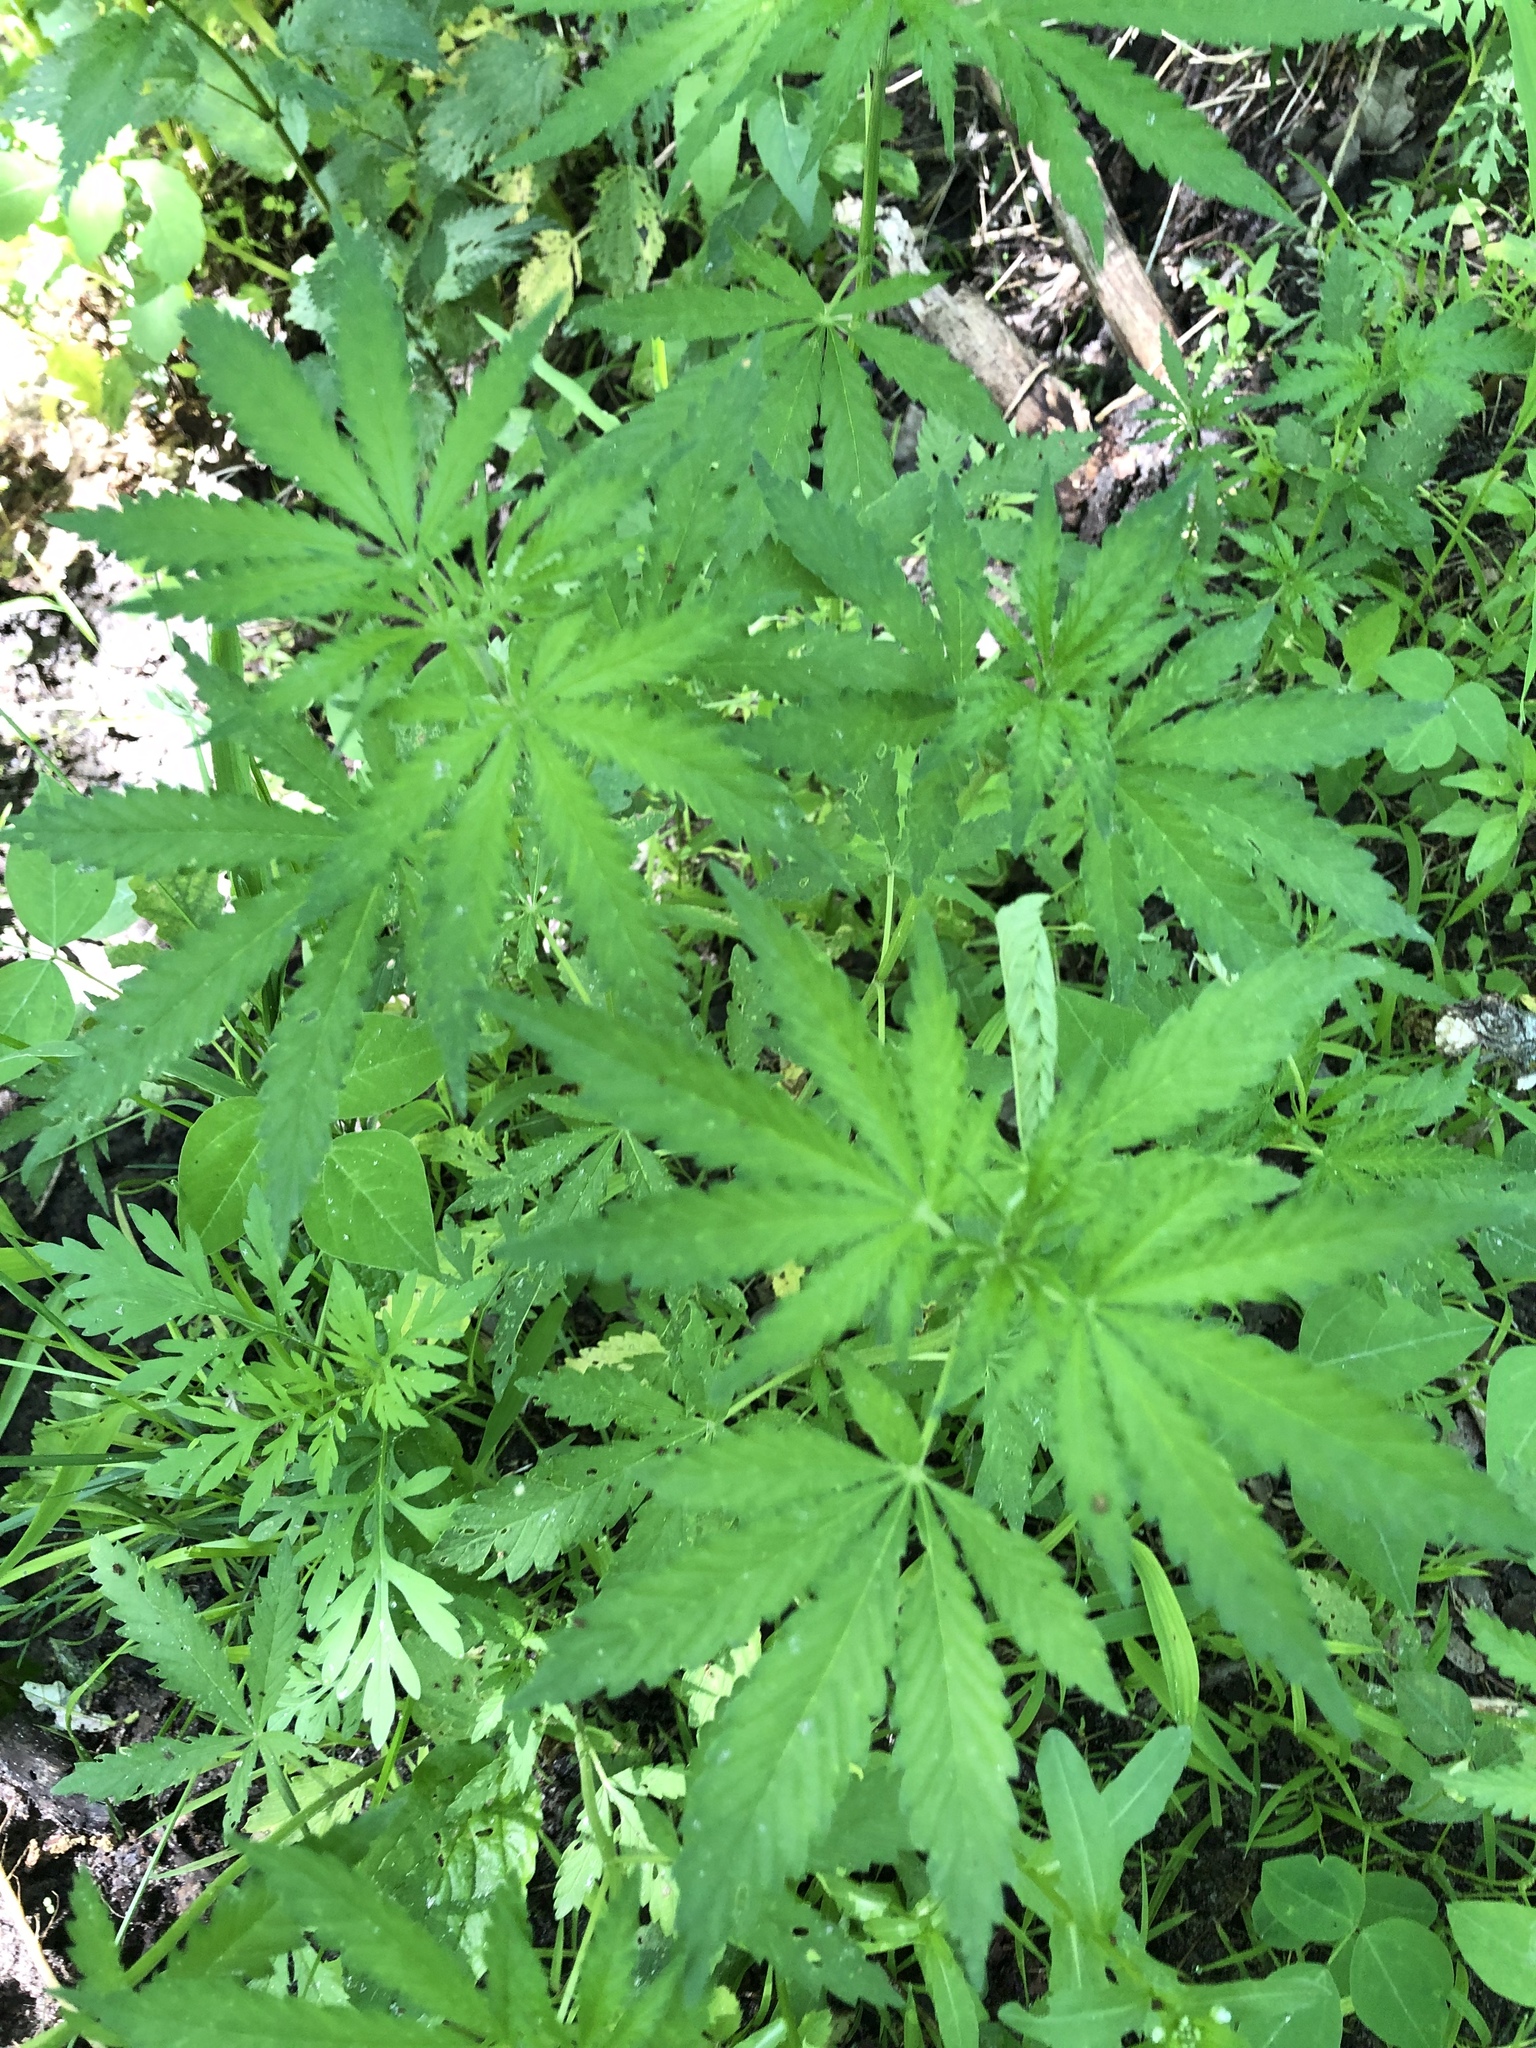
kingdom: Plantae
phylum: Tracheophyta
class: Magnoliopsida
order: Rosales
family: Cannabaceae
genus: Cannabis
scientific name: Cannabis sativa
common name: Hemp
